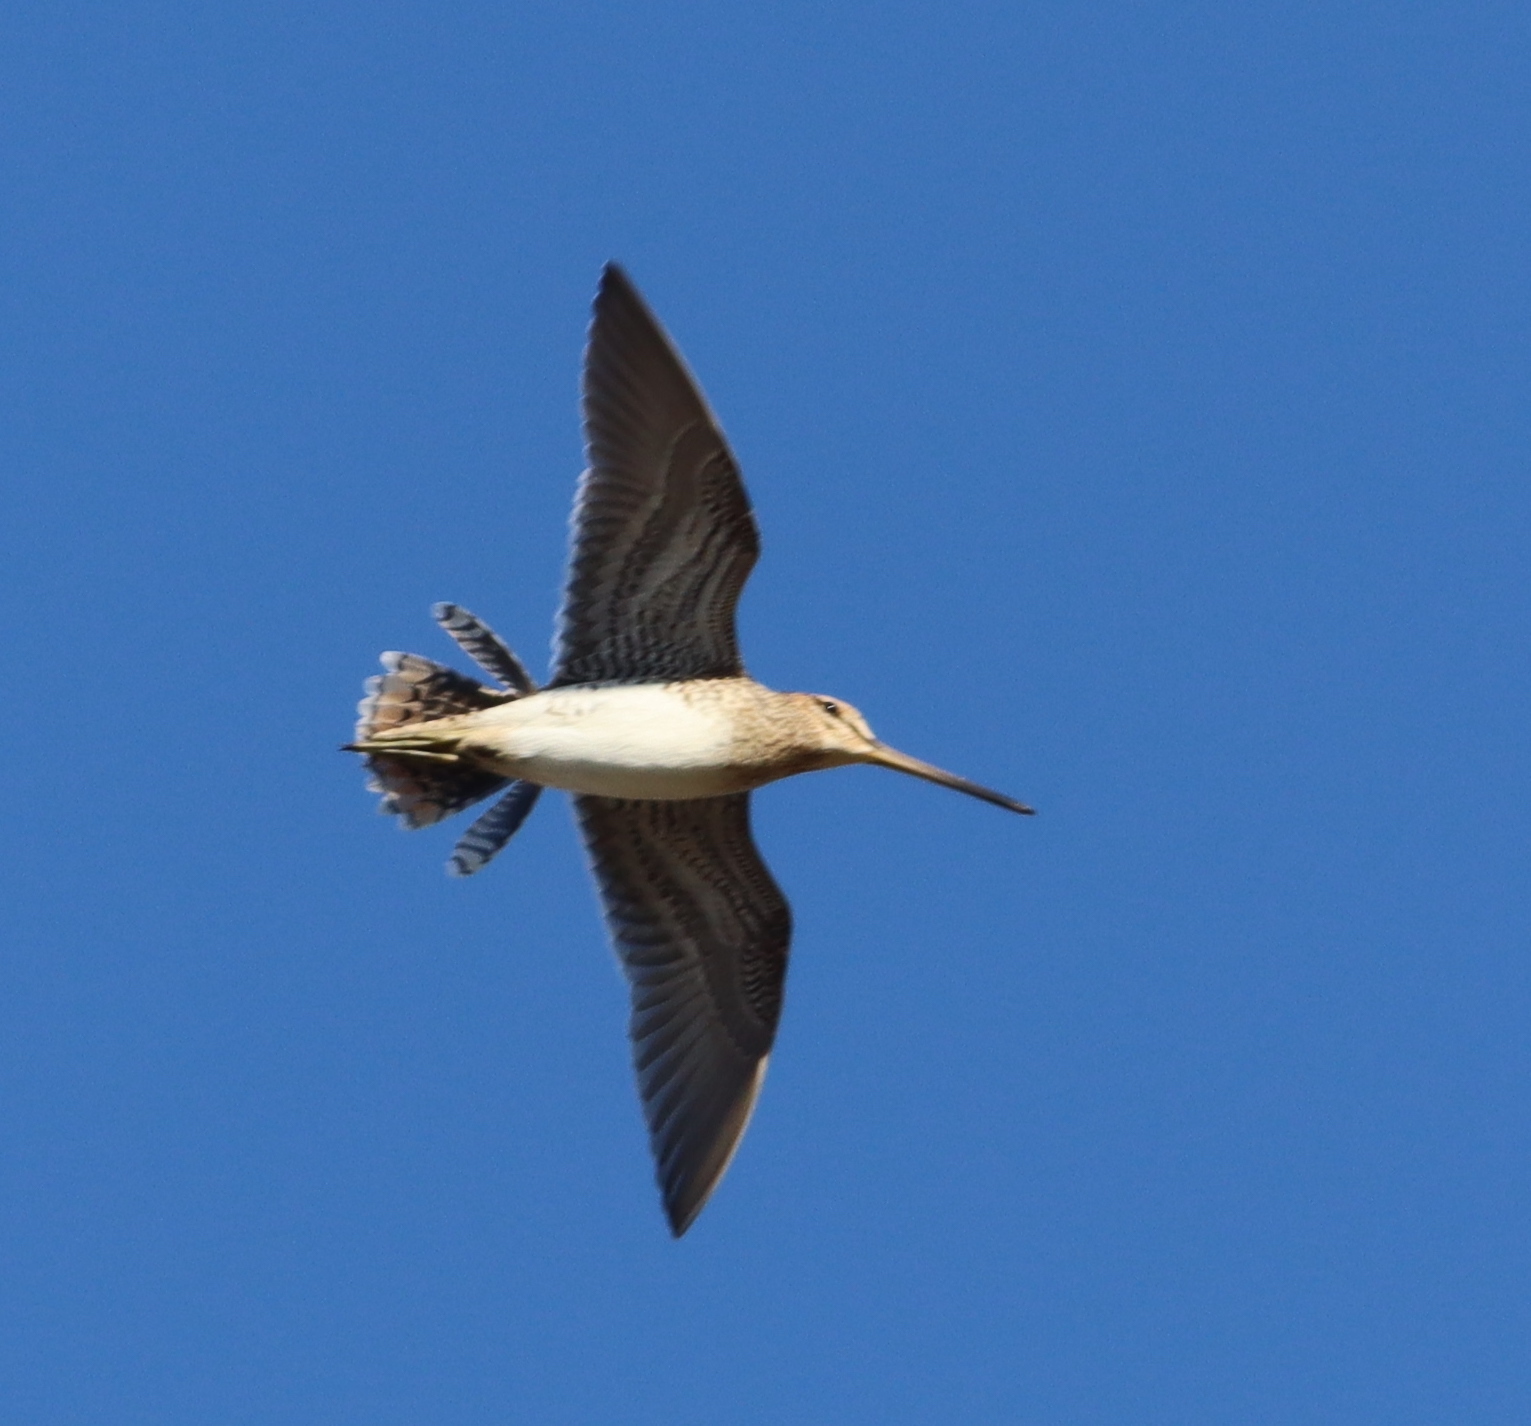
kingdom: Animalia
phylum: Chordata
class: Aves
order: Charadriiformes
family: Scolopacidae
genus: Gallinago
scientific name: Gallinago gallinago
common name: Common snipe
